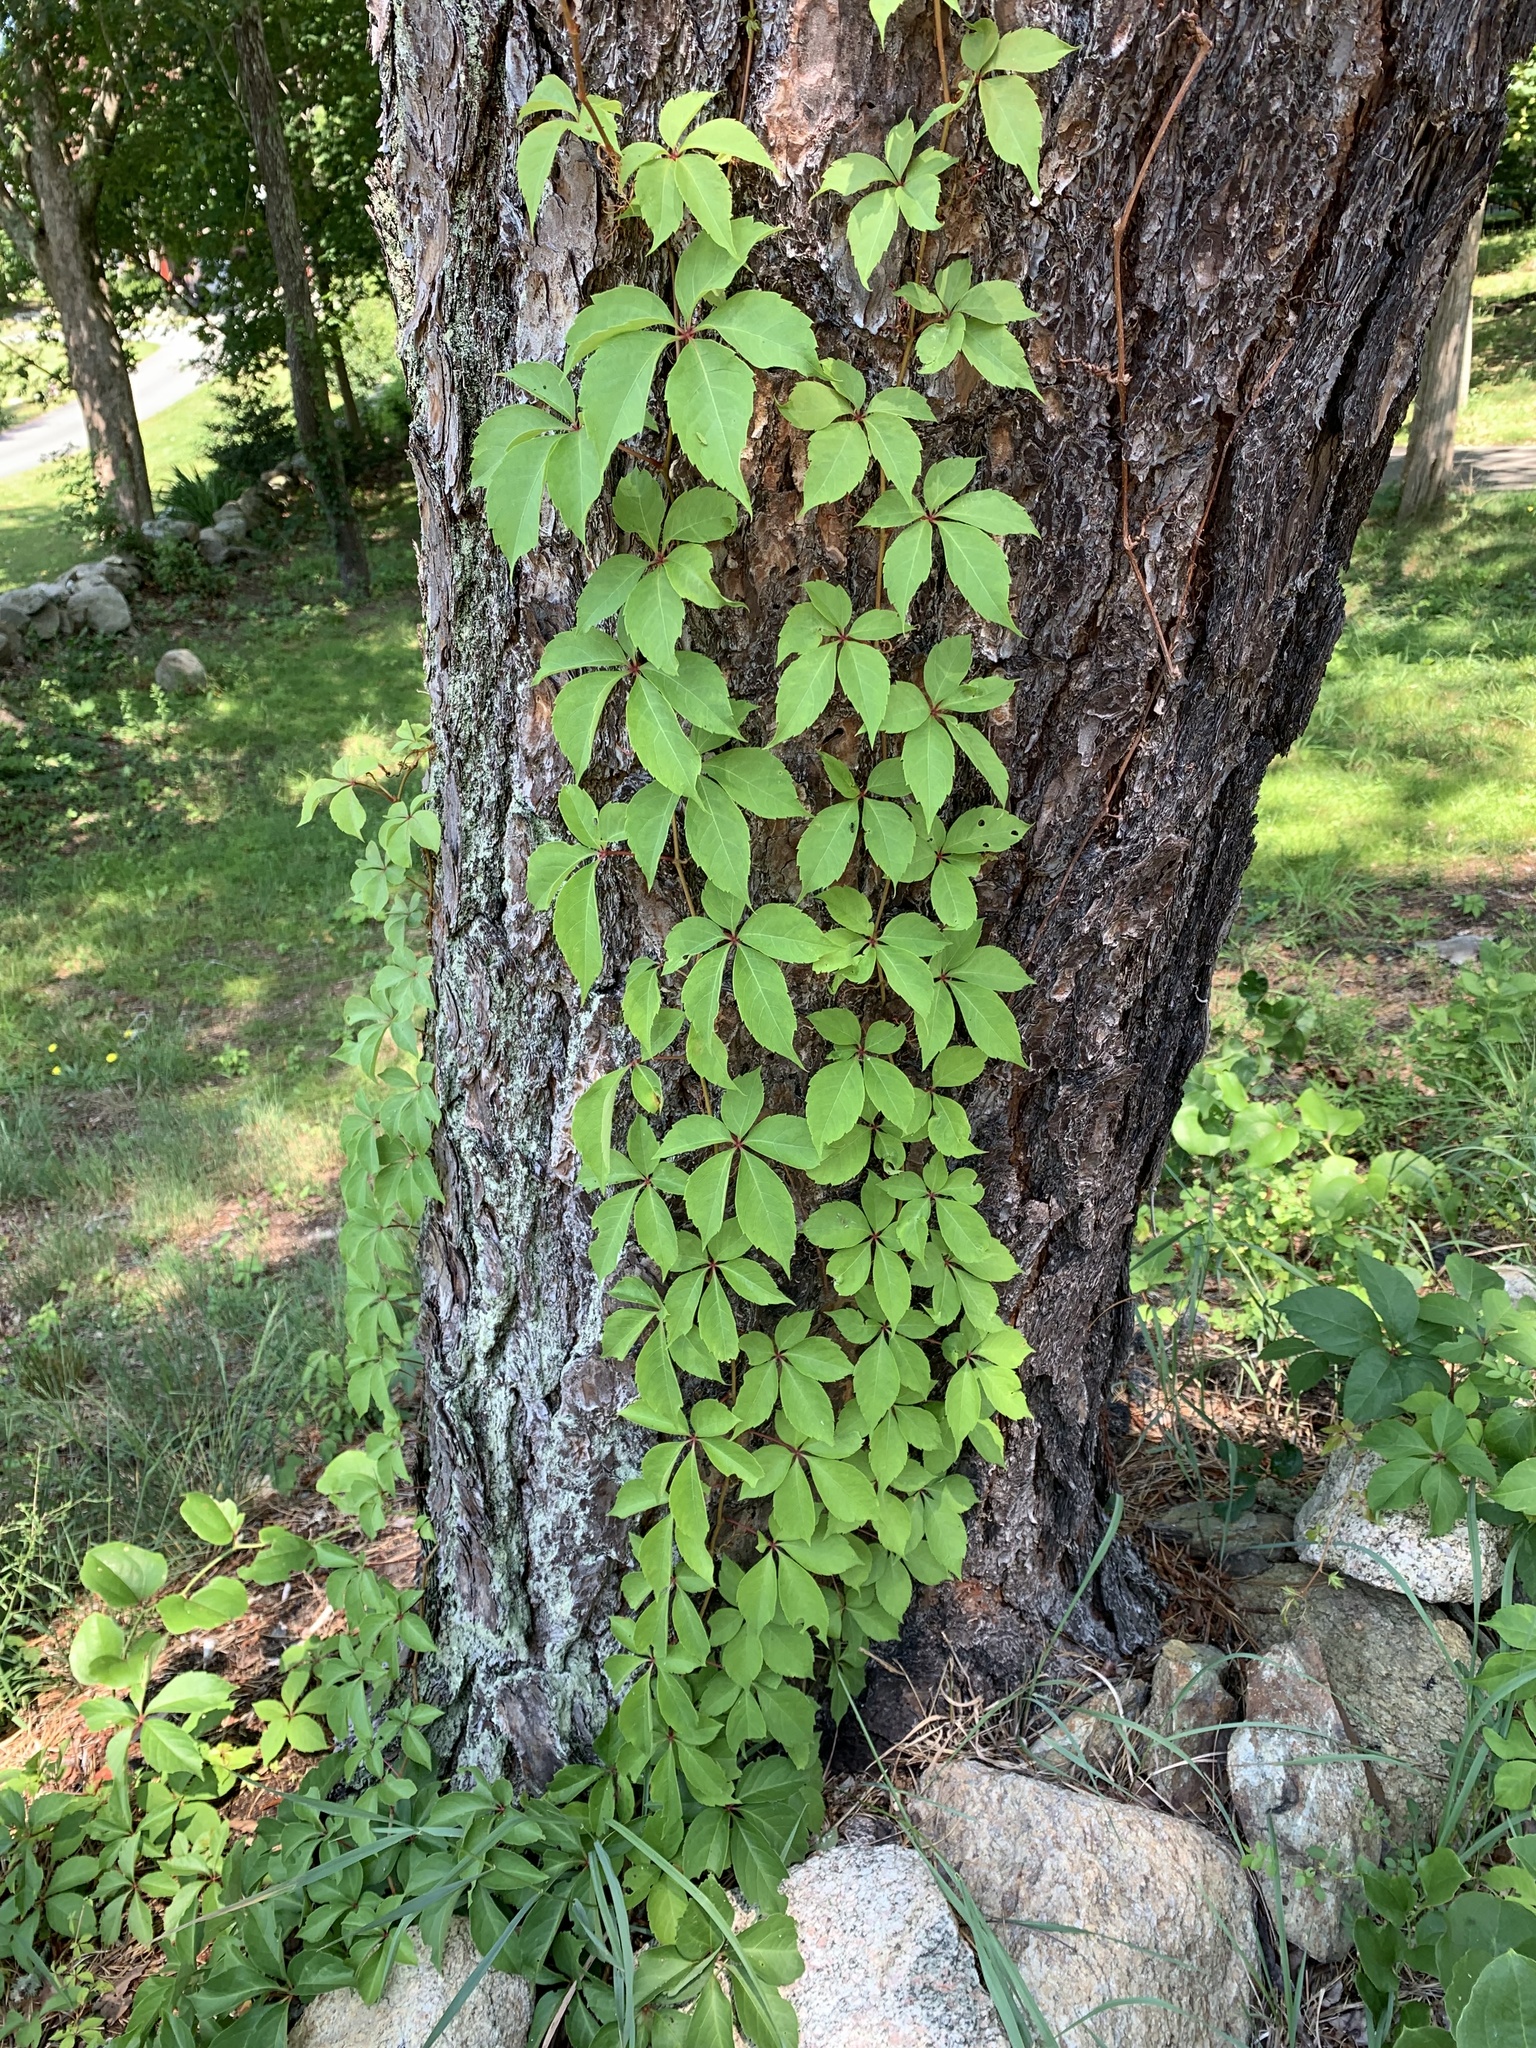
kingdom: Plantae
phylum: Tracheophyta
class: Magnoliopsida
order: Vitales
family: Vitaceae
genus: Parthenocissus
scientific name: Parthenocissus inserta
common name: False virginia-creeper
